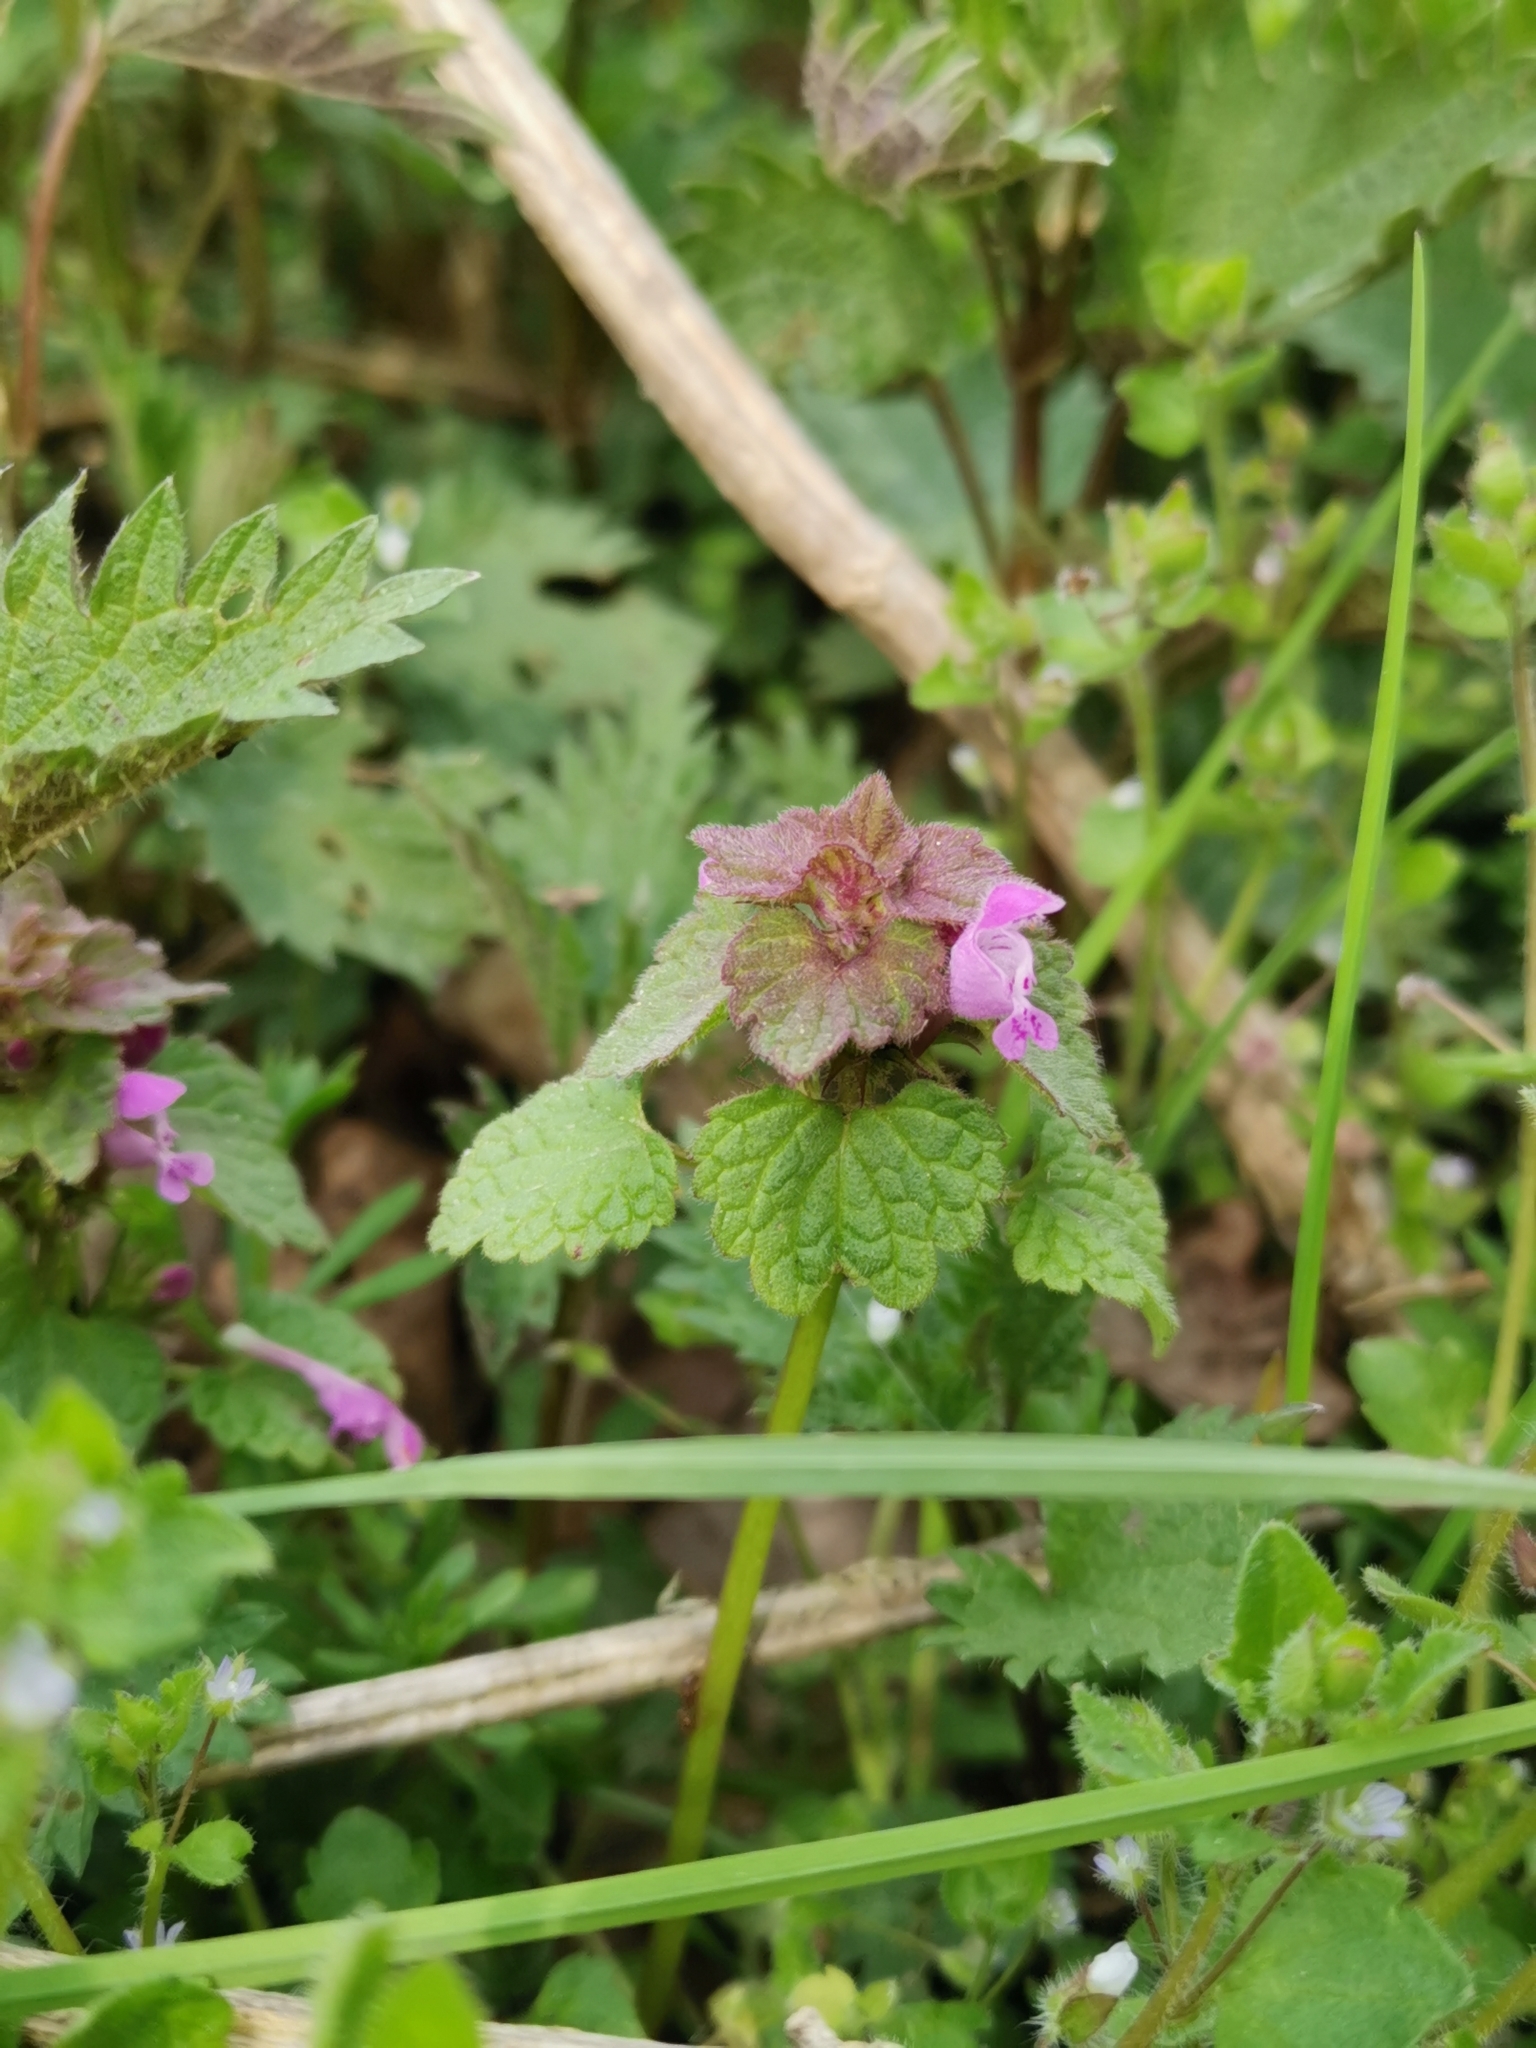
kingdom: Plantae
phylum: Tracheophyta
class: Magnoliopsida
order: Lamiales
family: Lamiaceae
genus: Lamium
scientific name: Lamium purpureum
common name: Red dead-nettle
